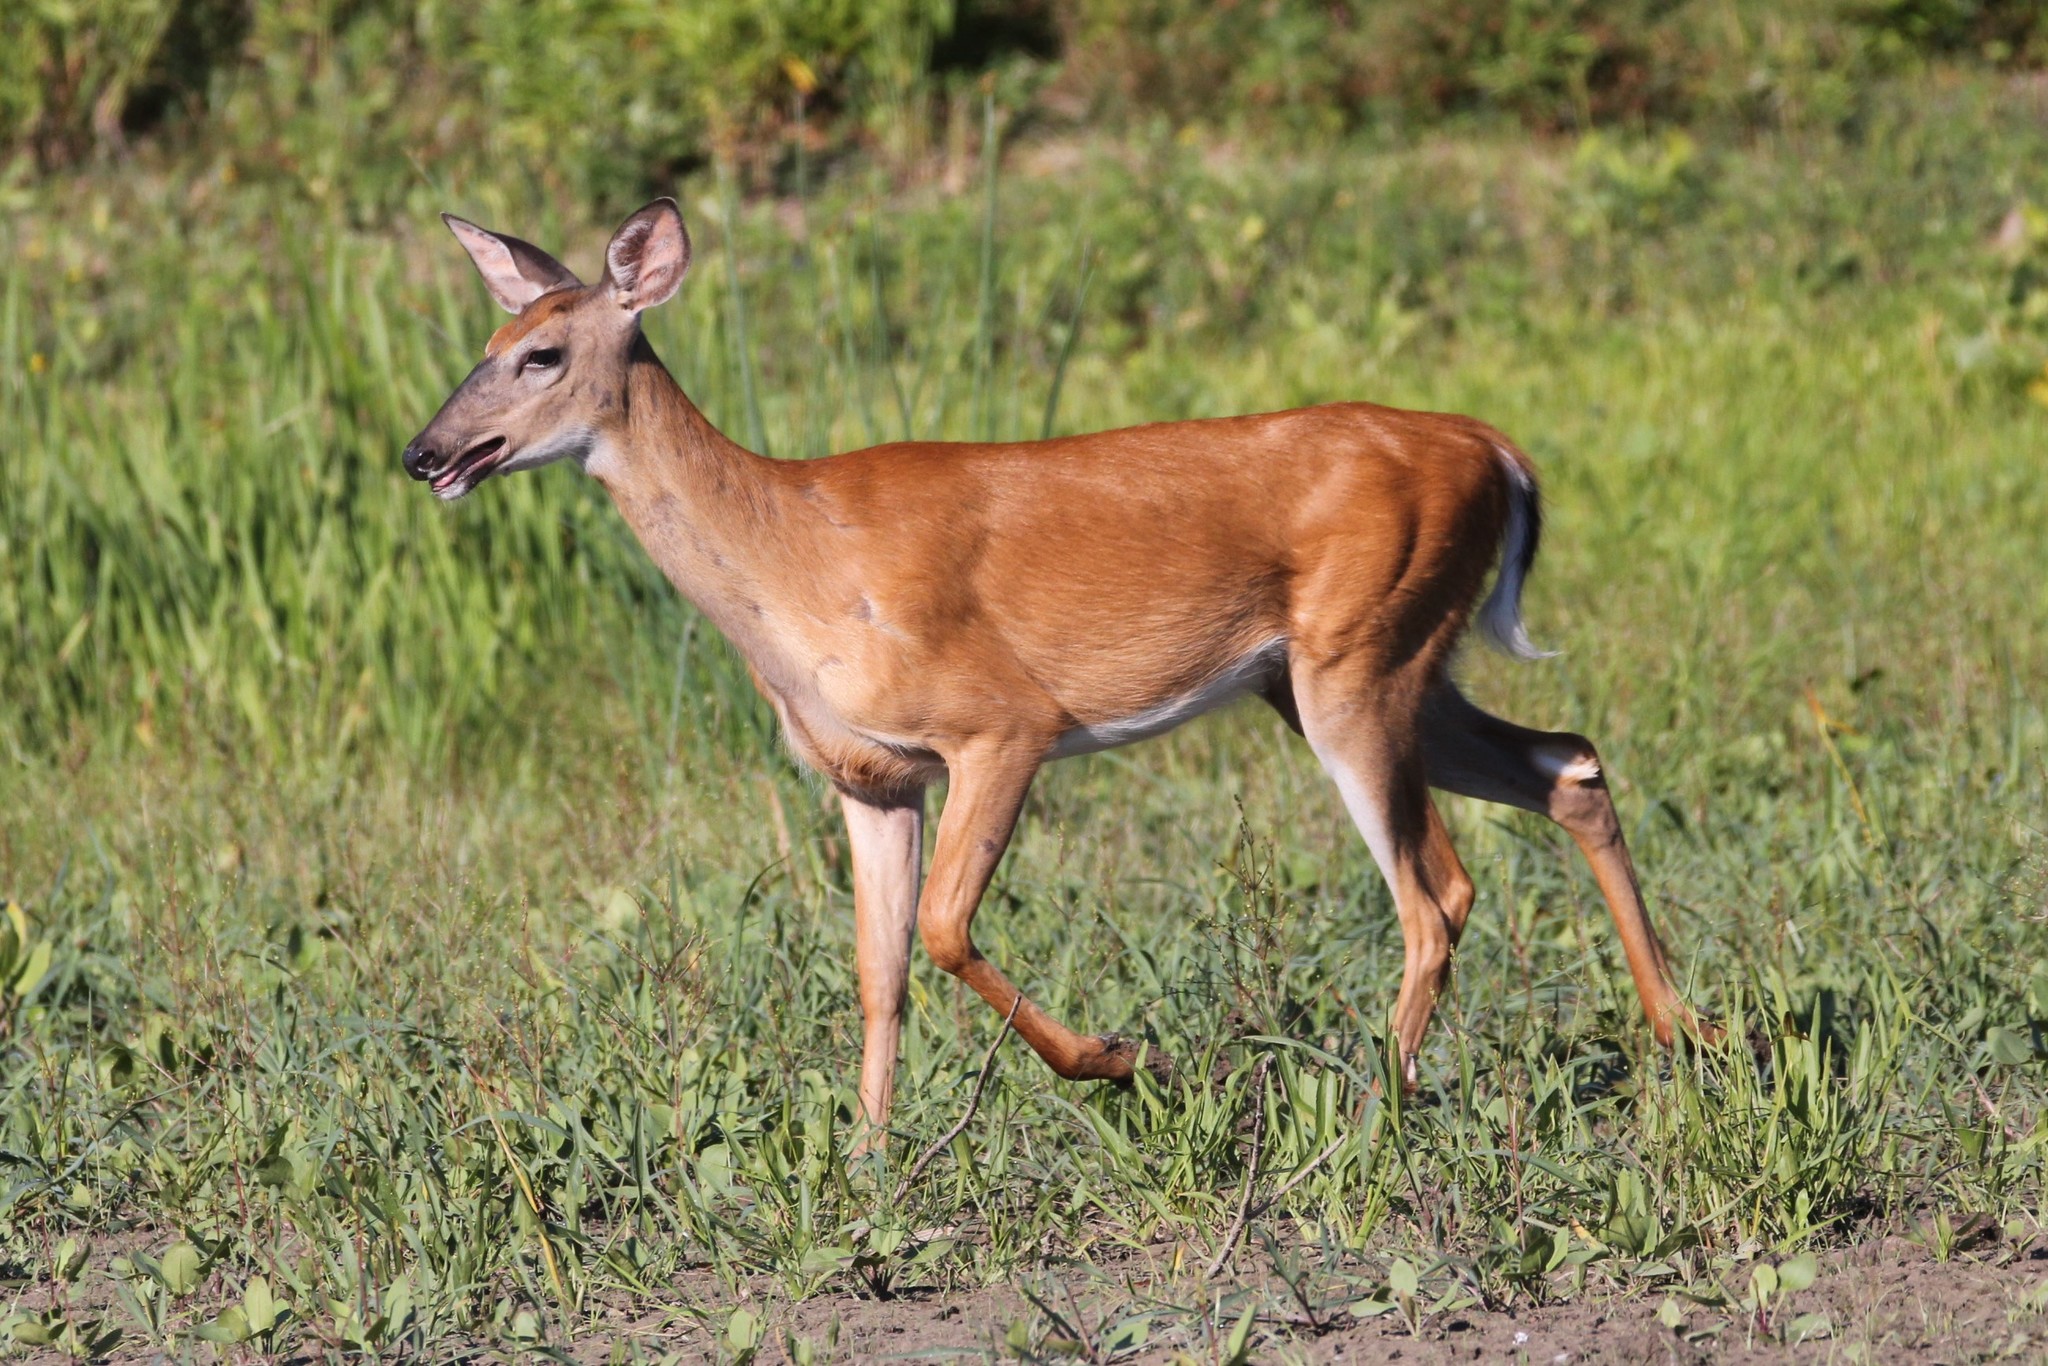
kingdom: Animalia
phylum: Chordata
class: Mammalia
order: Artiodactyla
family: Cervidae
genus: Odocoileus
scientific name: Odocoileus virginianus
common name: White-tailed deer
